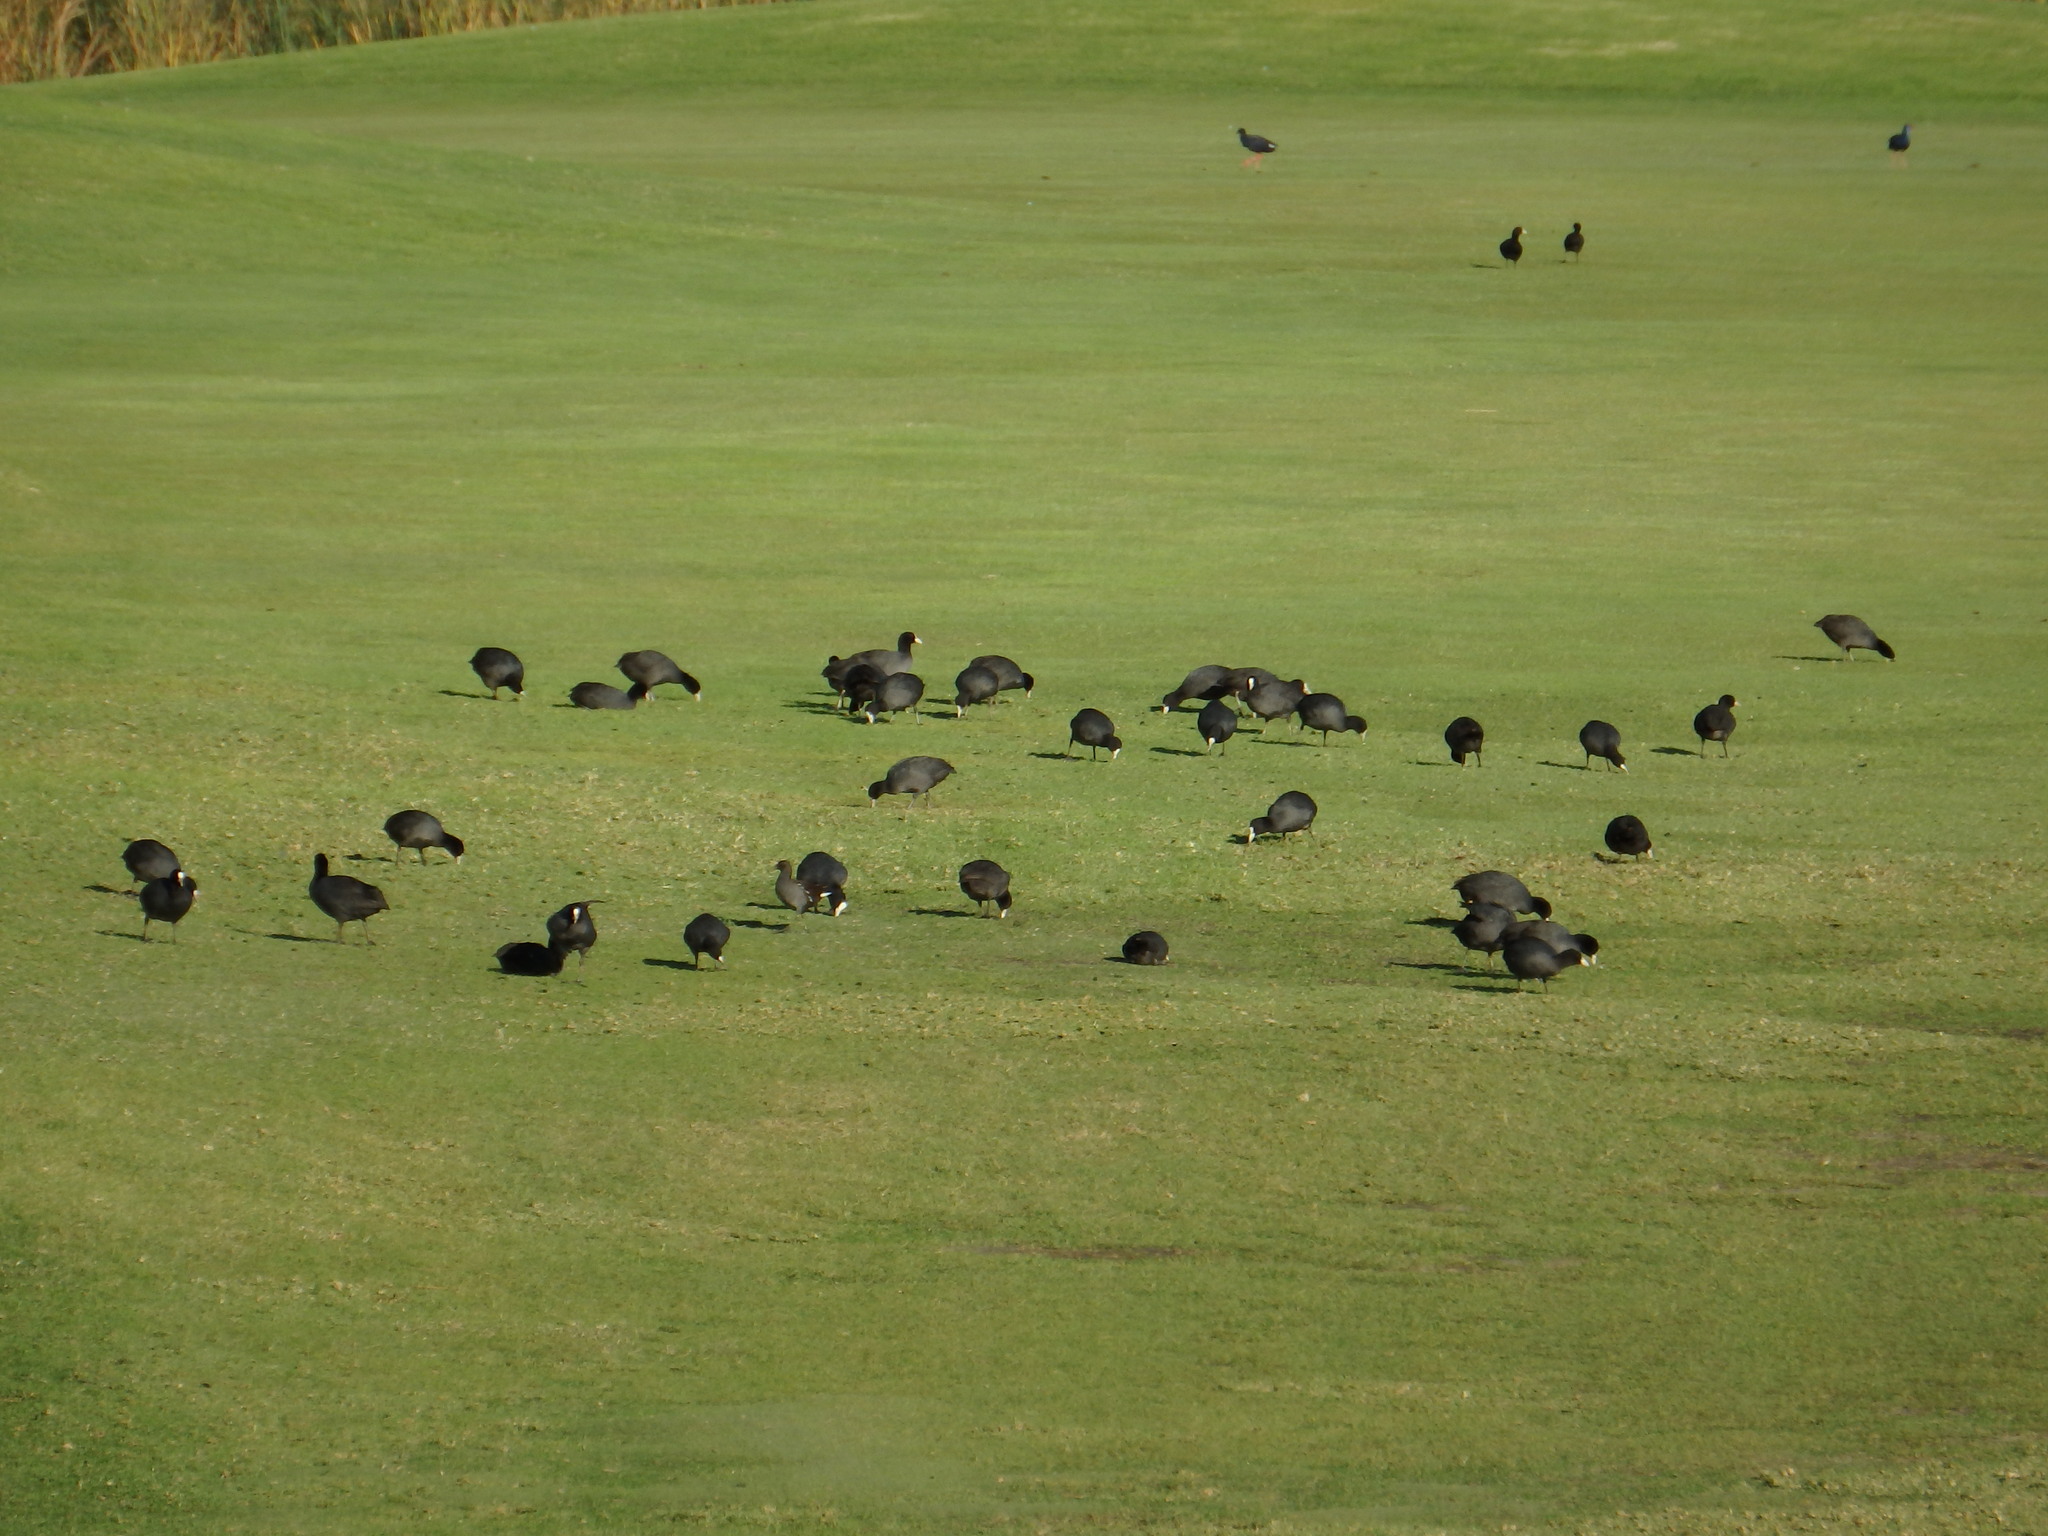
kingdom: Animalia
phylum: Chordata
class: Aves
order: Gruiformes
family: Rallidae
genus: Fulica
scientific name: Fulica atra
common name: Eurasian coot
